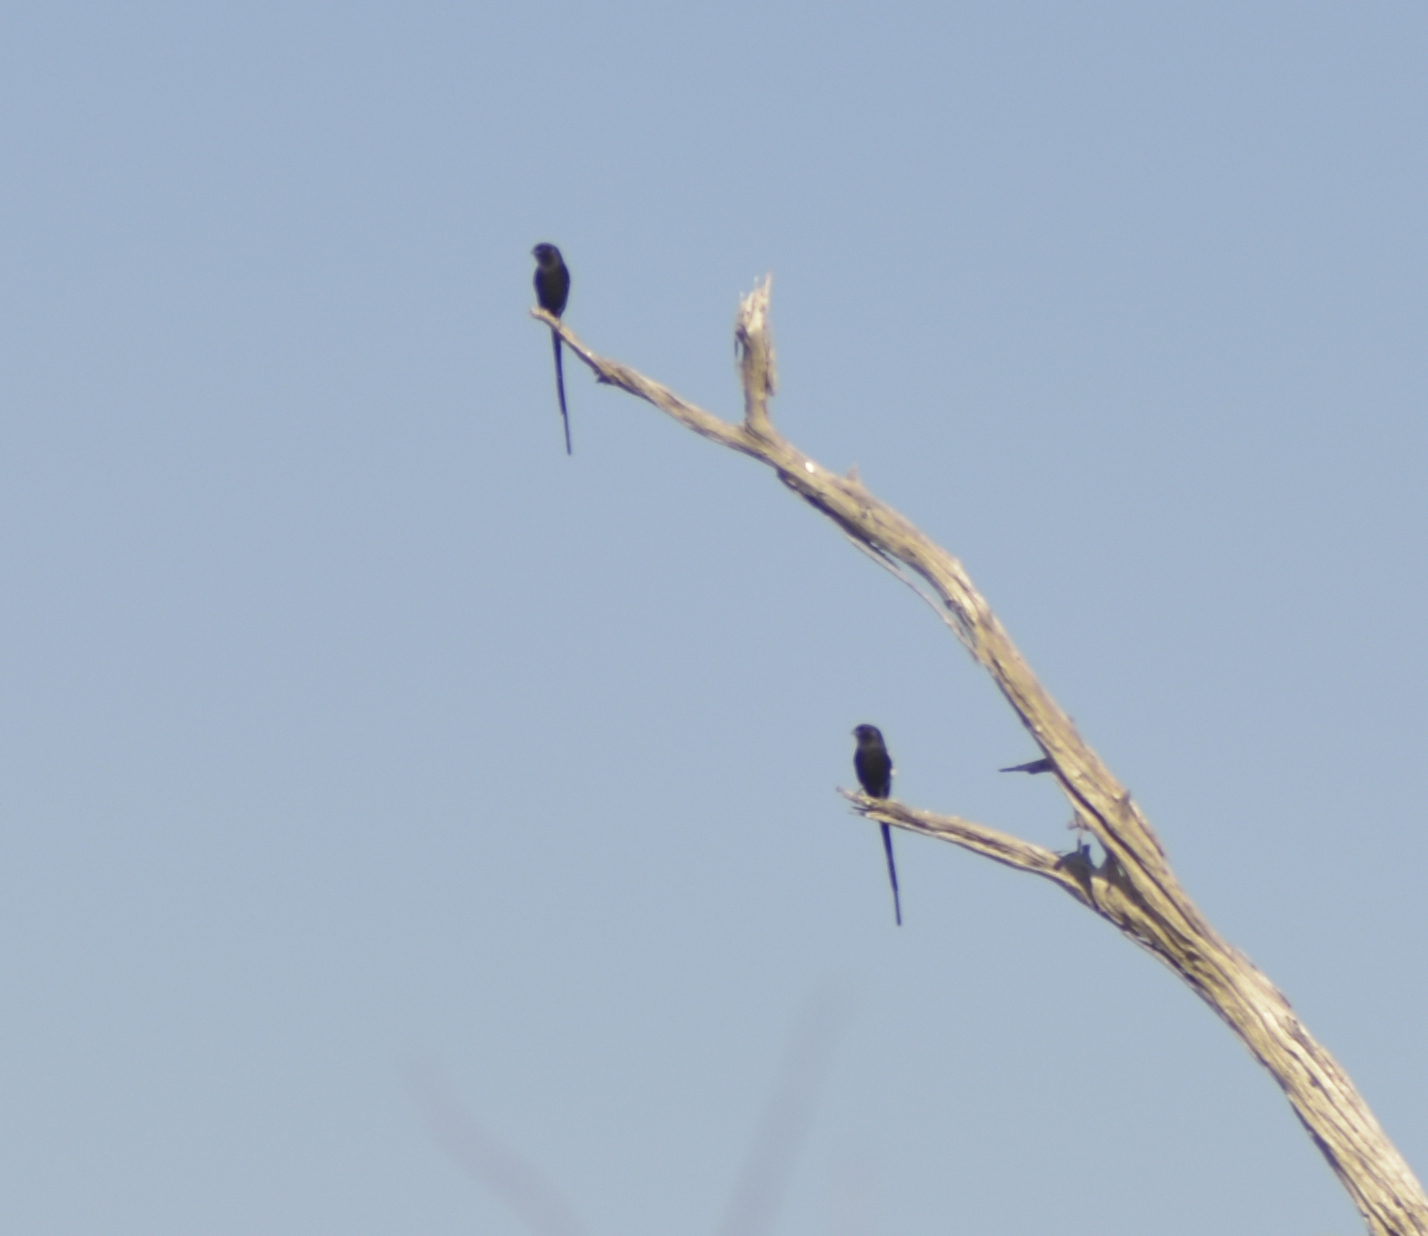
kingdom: Animalia
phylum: Chordata
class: Aves
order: Passeriformes
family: Laniidae
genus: Urolestes
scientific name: Urolestes melanoleucus
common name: Magpie shrike
